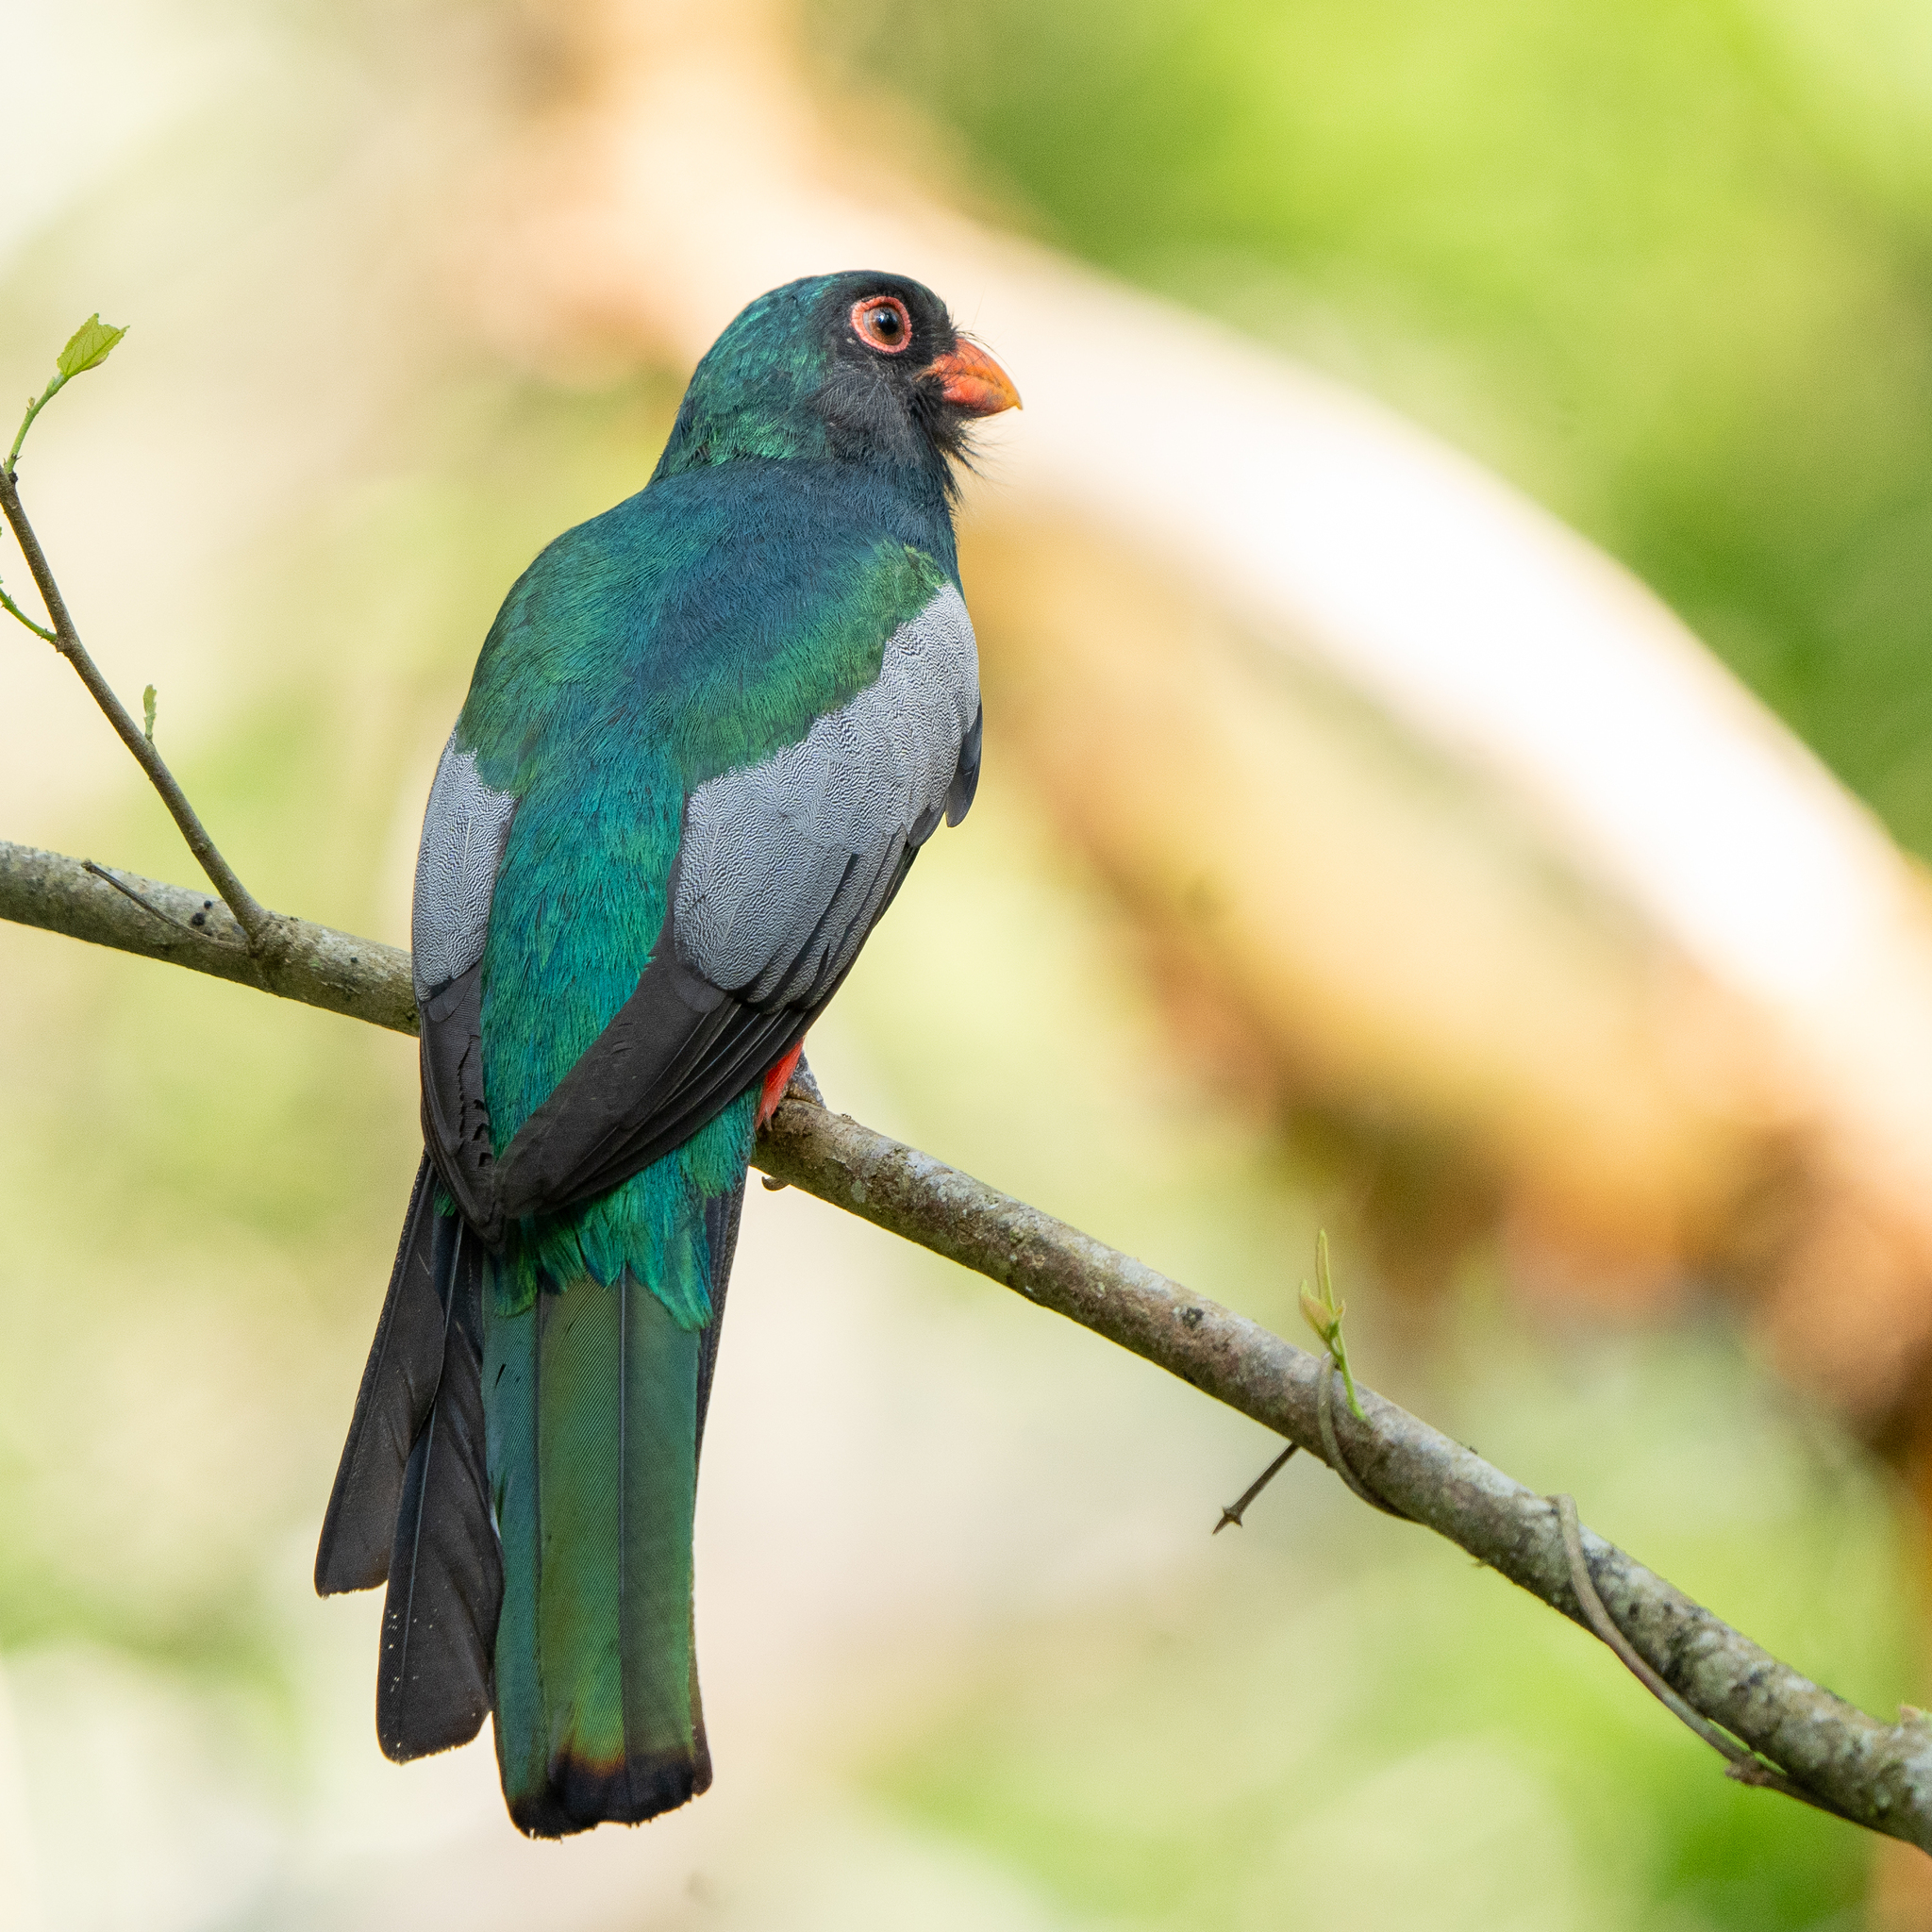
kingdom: Animalia
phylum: Chordata
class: Aves
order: Trogoniformes
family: Trogonidae
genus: Trogon
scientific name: Trogon massena
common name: Slaty-tailed trogon
